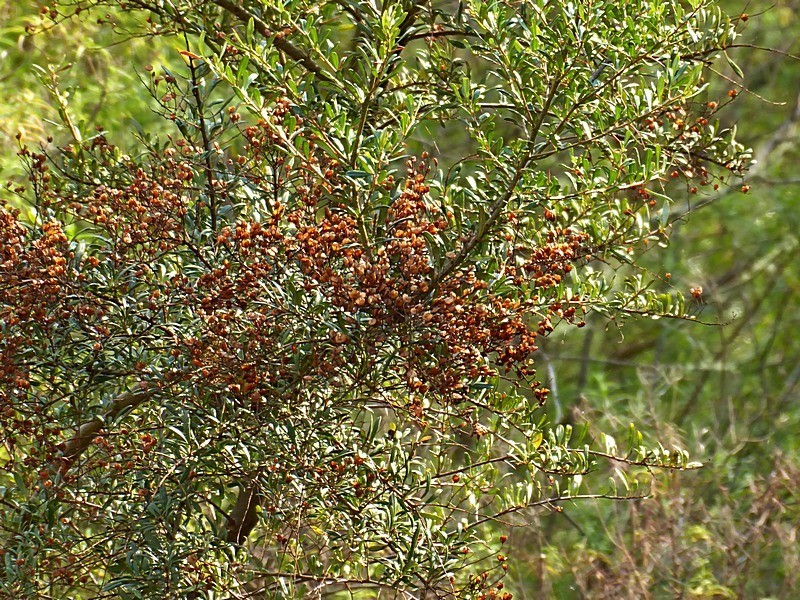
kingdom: Plantae
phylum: Tracheophyta
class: Magnoliopsida
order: Apiales
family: Pittosporaceae
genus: Bursaria
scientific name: Bursaria spinosa
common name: Australian blackthorn
